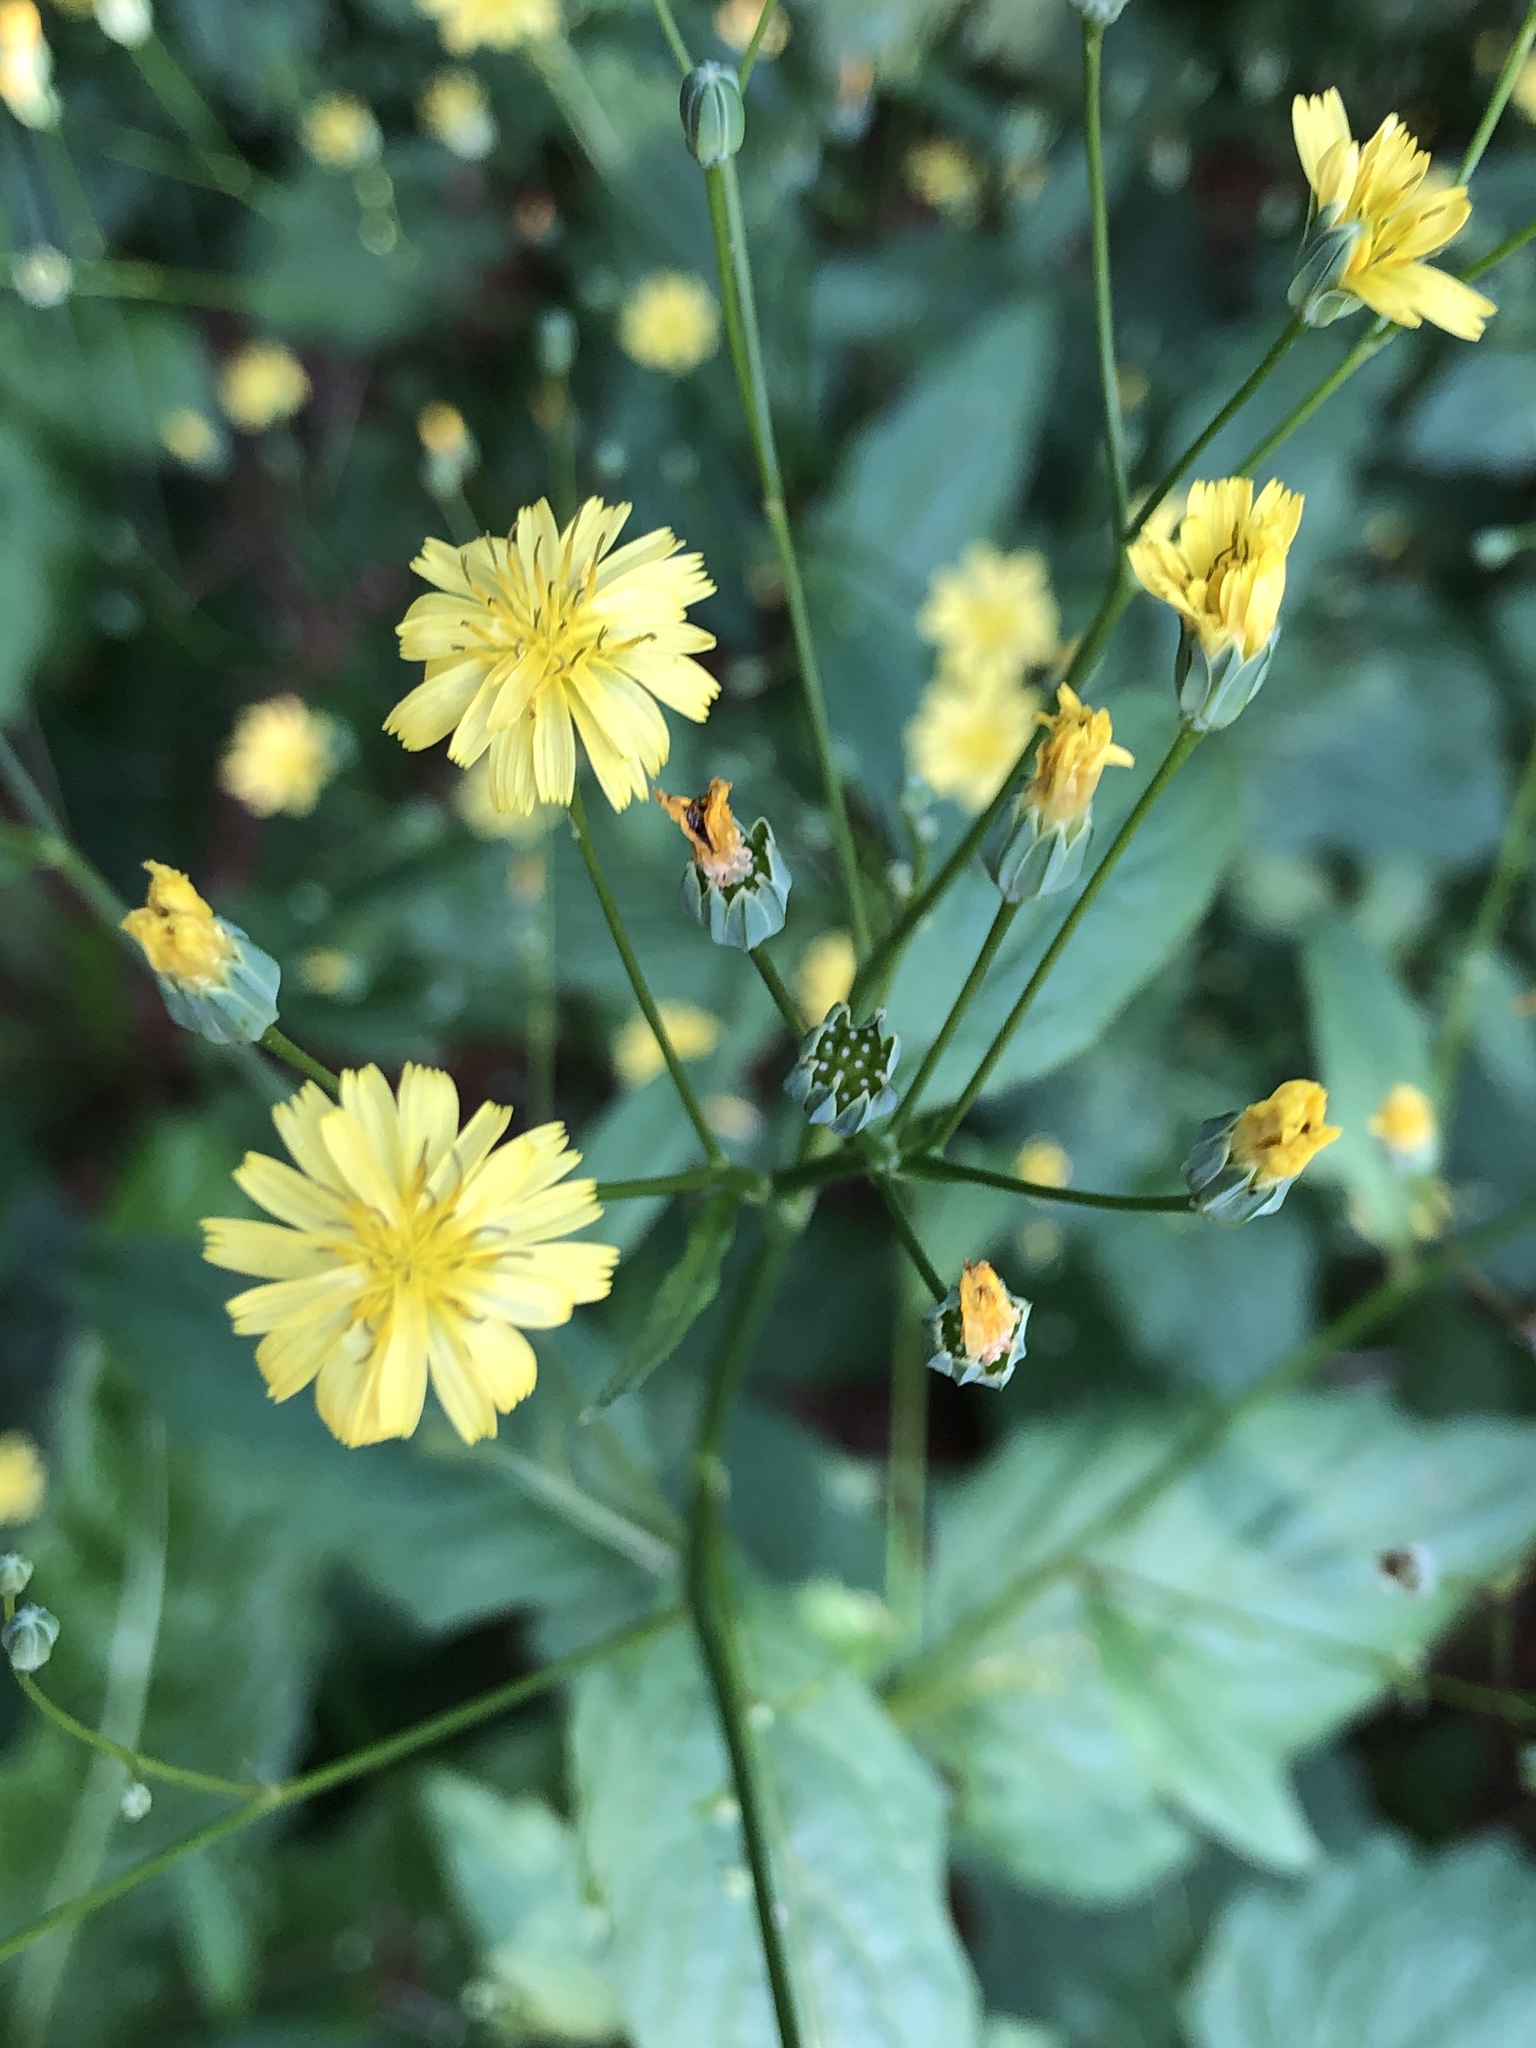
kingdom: Plantae
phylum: Tracheophyta
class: Magnoliopsida
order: Asterales
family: Asteraceae
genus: Lapsana
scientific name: Lapsana communis
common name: Nipplewort
